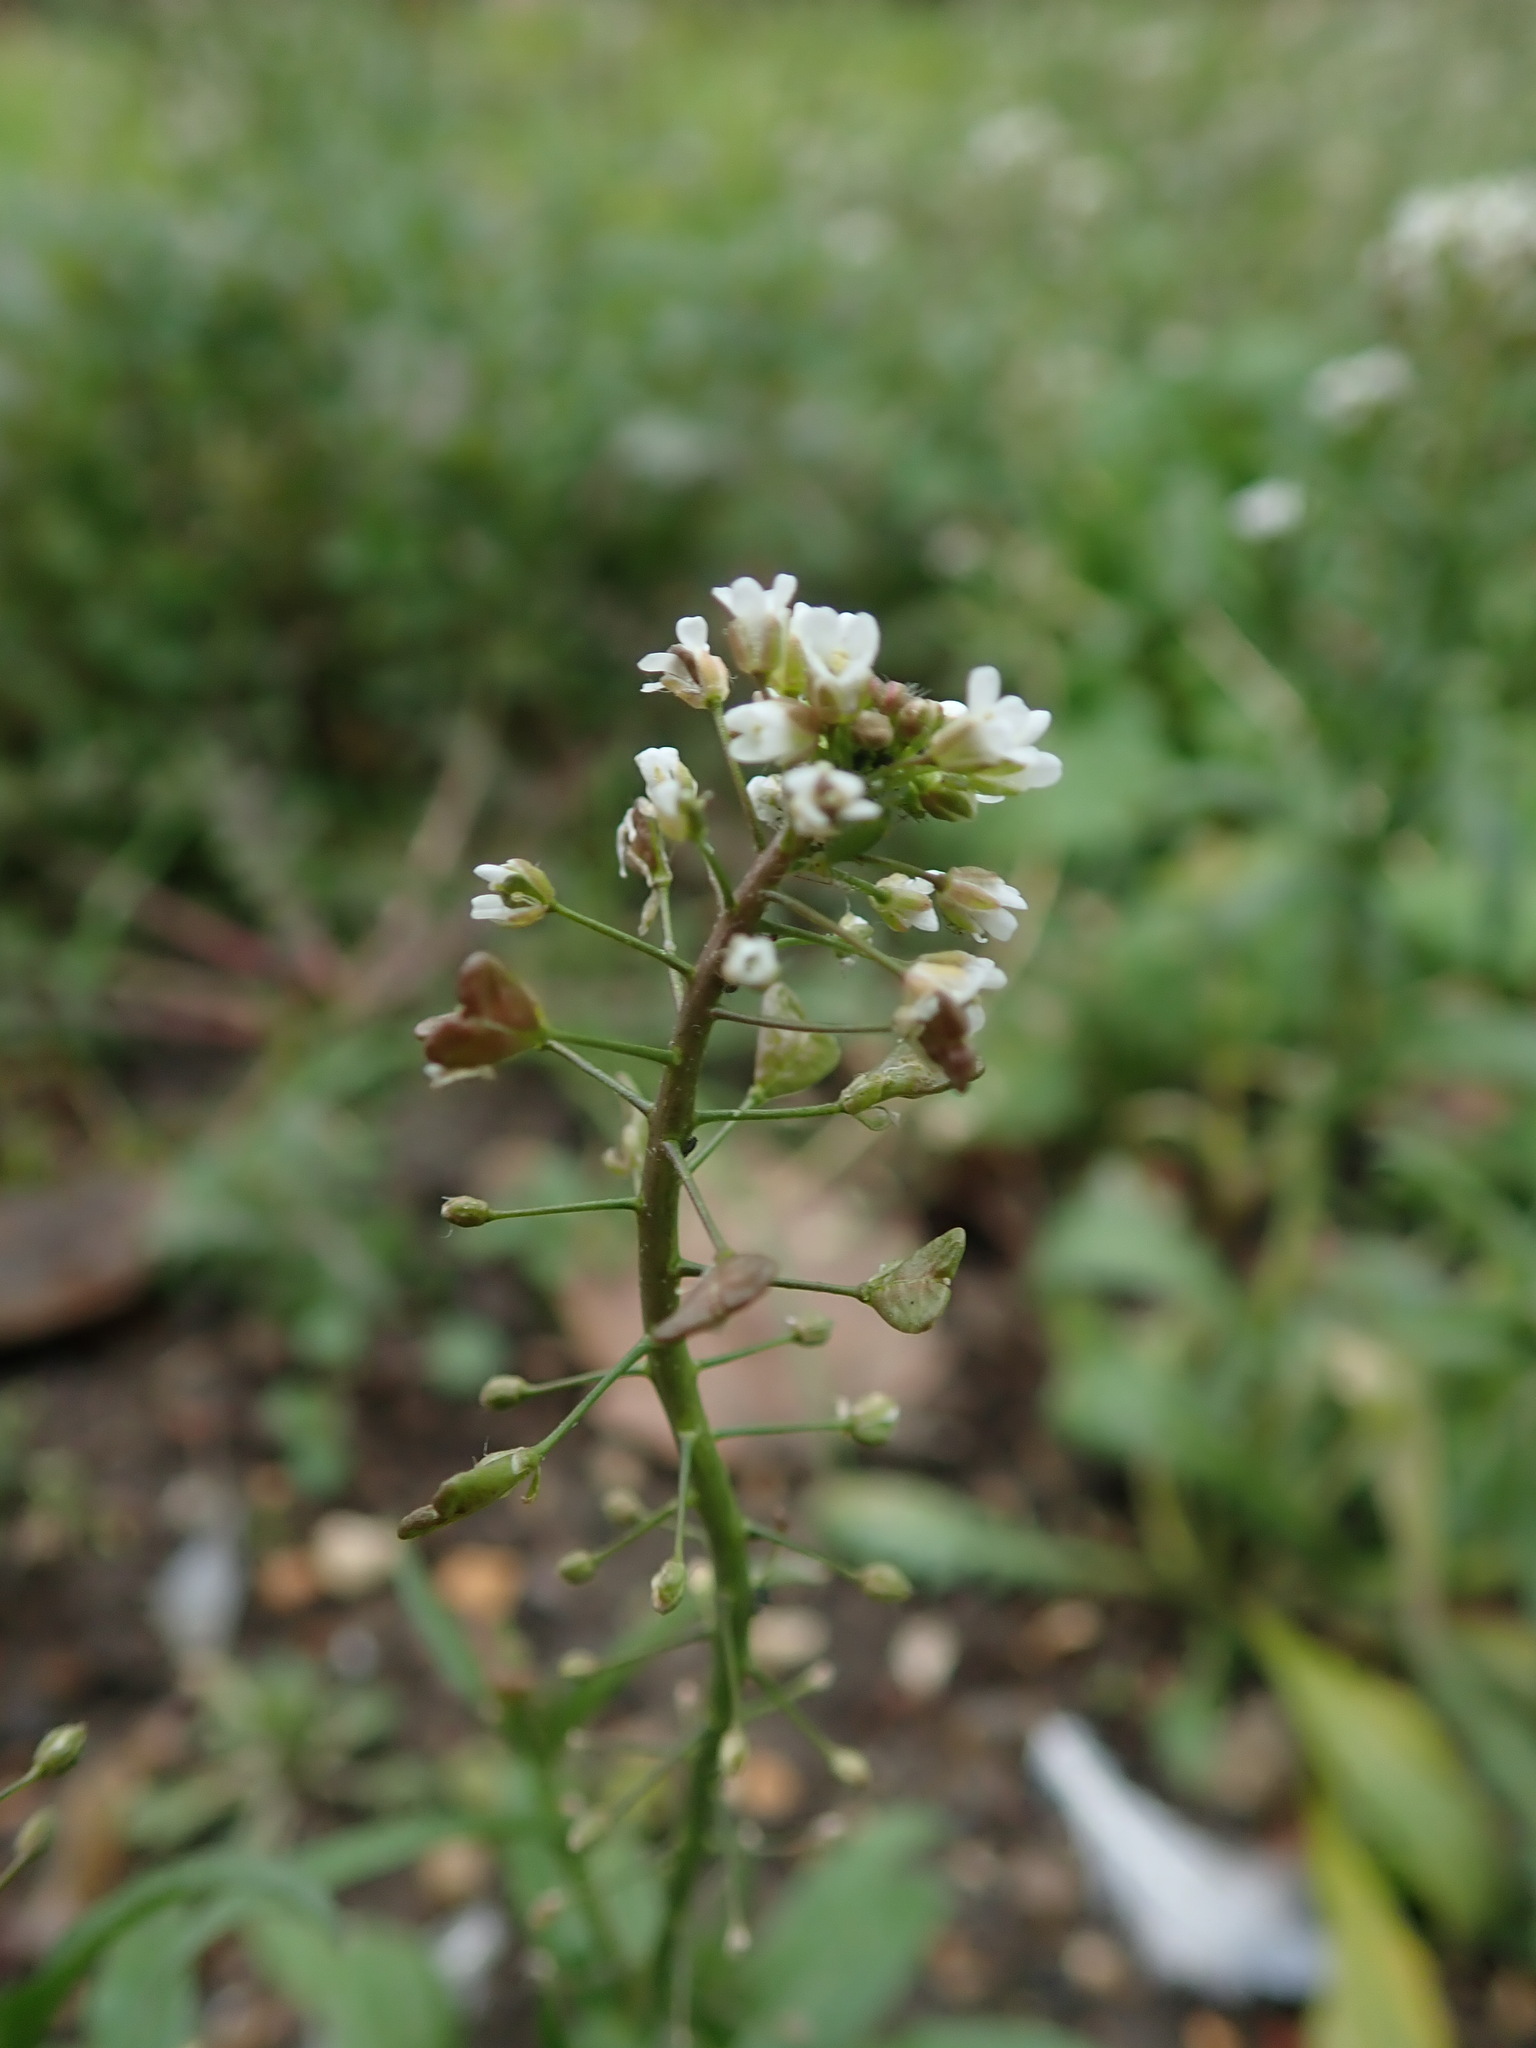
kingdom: Plantae
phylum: Tracheophyta
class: Magnoliopsida
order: Brassicales
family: Brassicaceae
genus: Capsella
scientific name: Capsella bursa-pastoris
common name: Shepherd's purse
